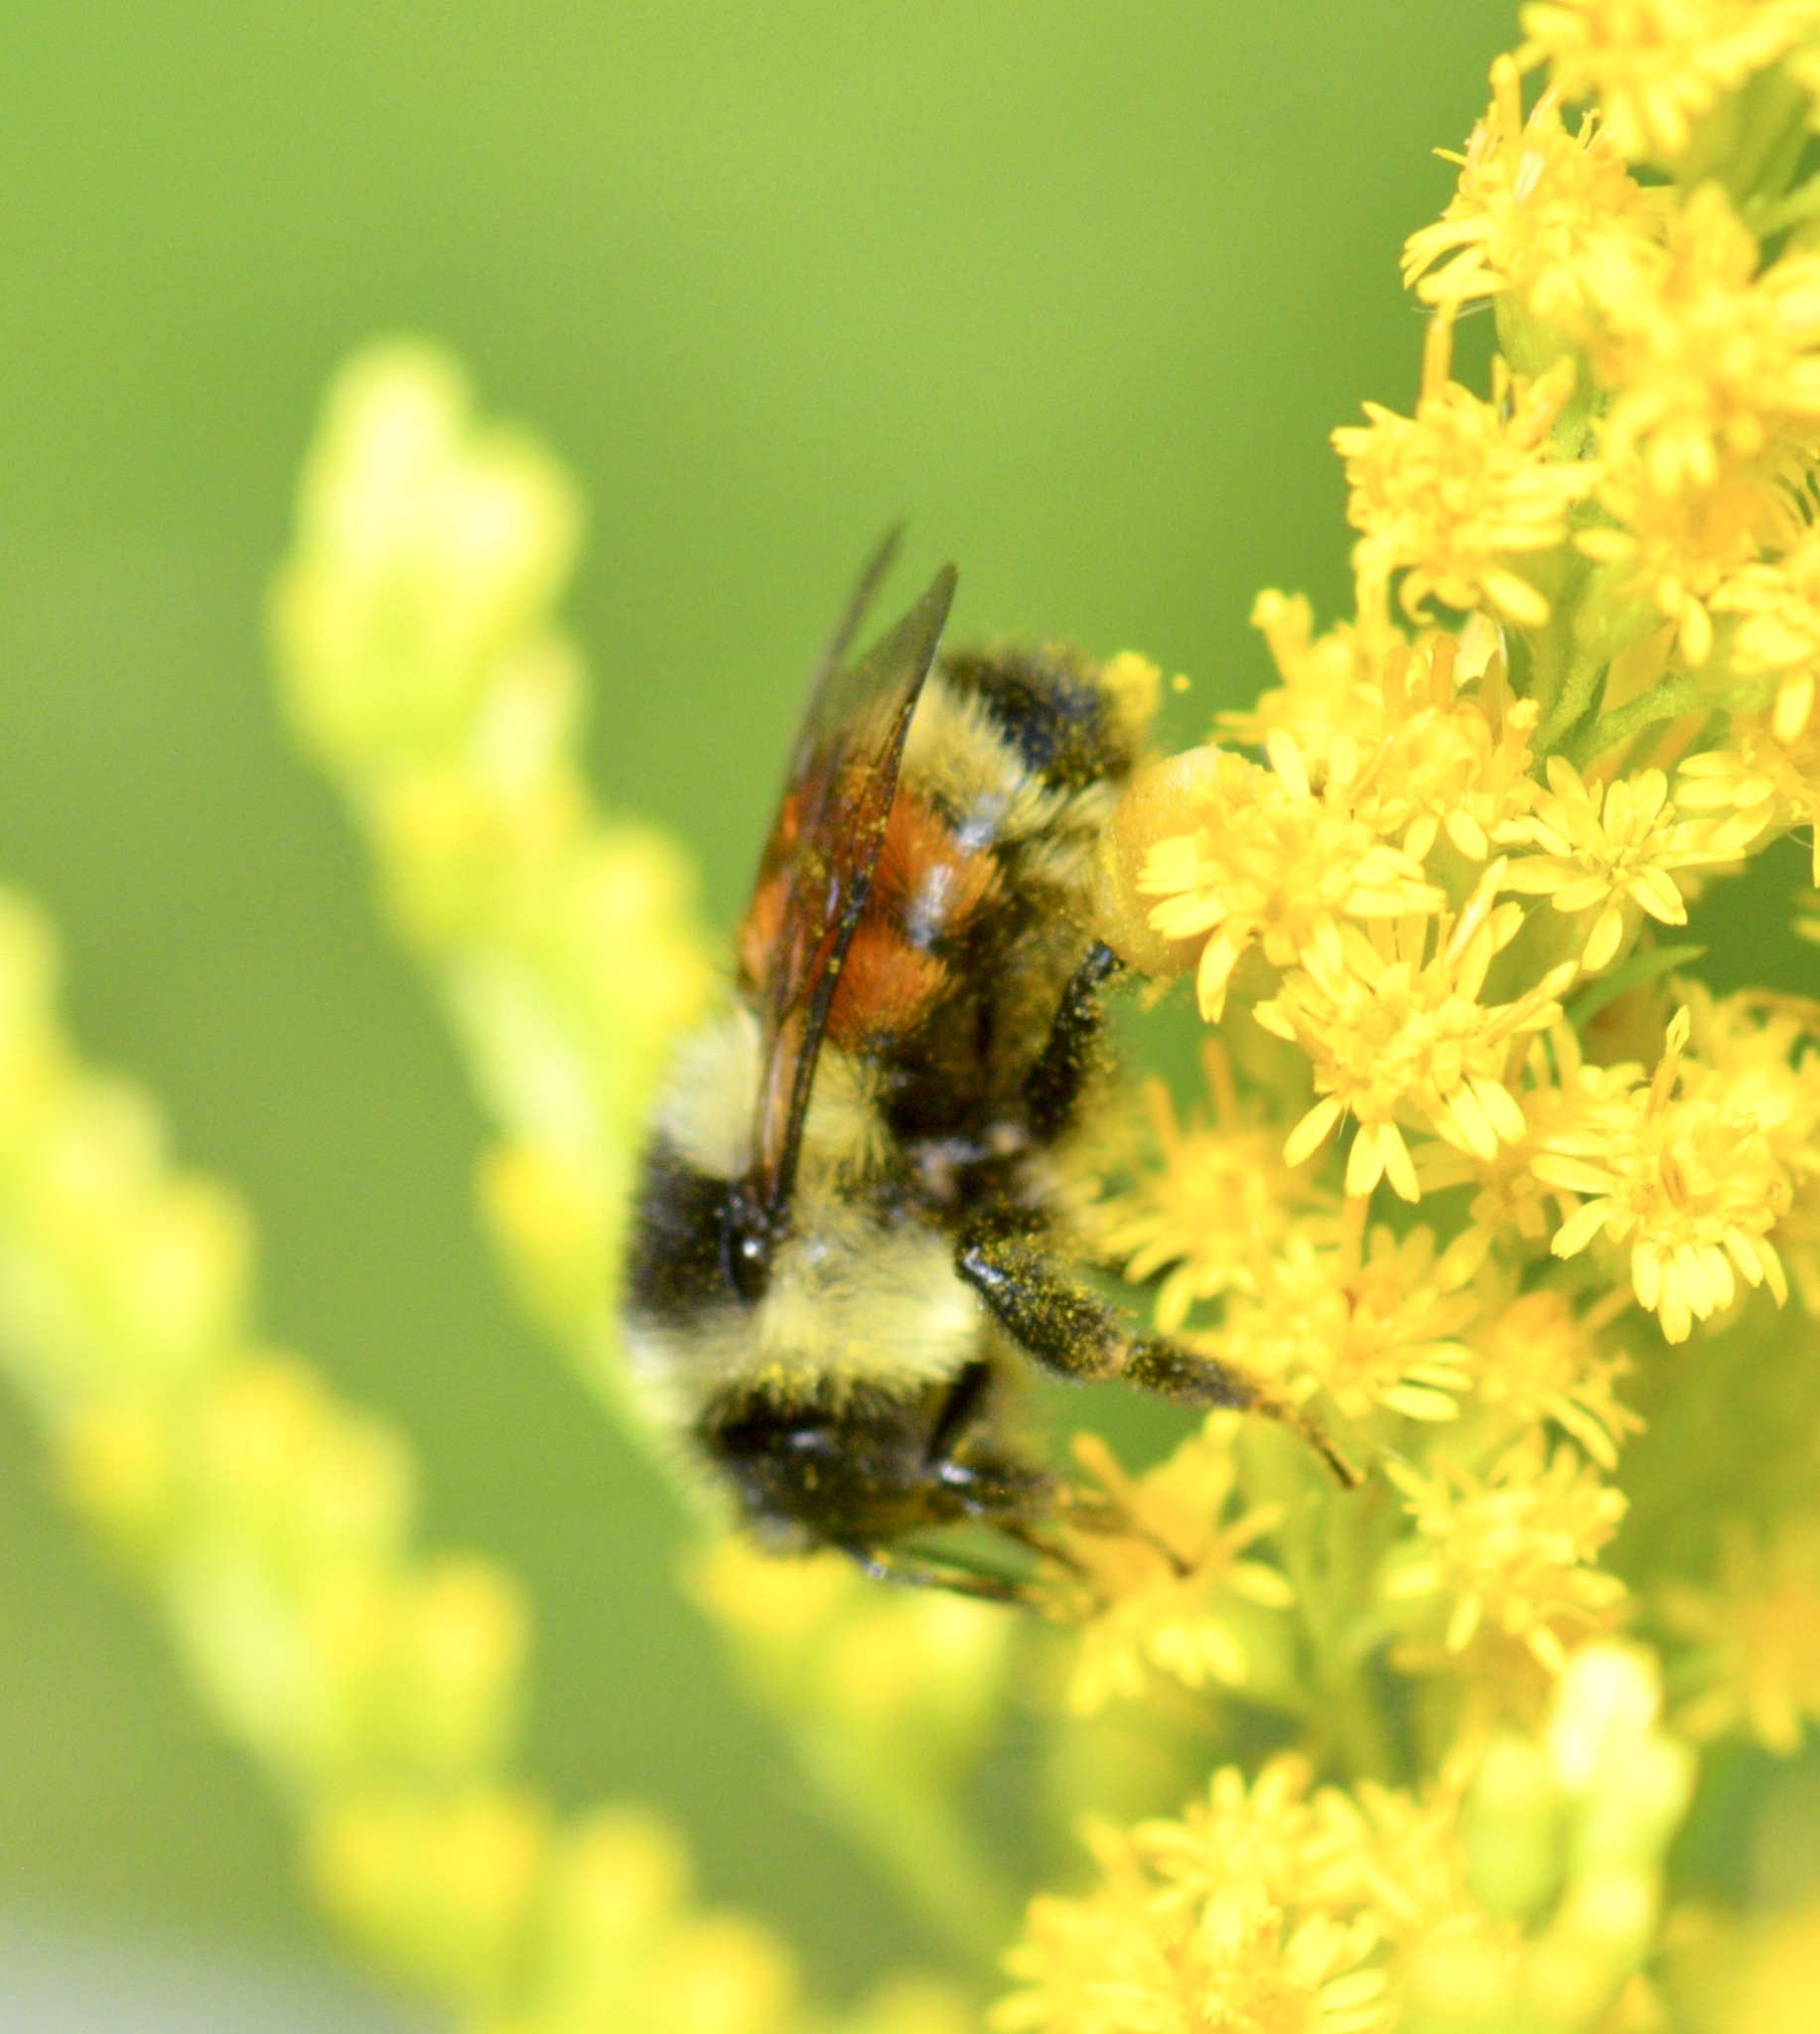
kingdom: Animalia
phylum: Arthropoda
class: Insecta
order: Hymenoptera
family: Apidae
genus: Bombus
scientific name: Bombus ternarius
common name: Tri-colored bumble bee
